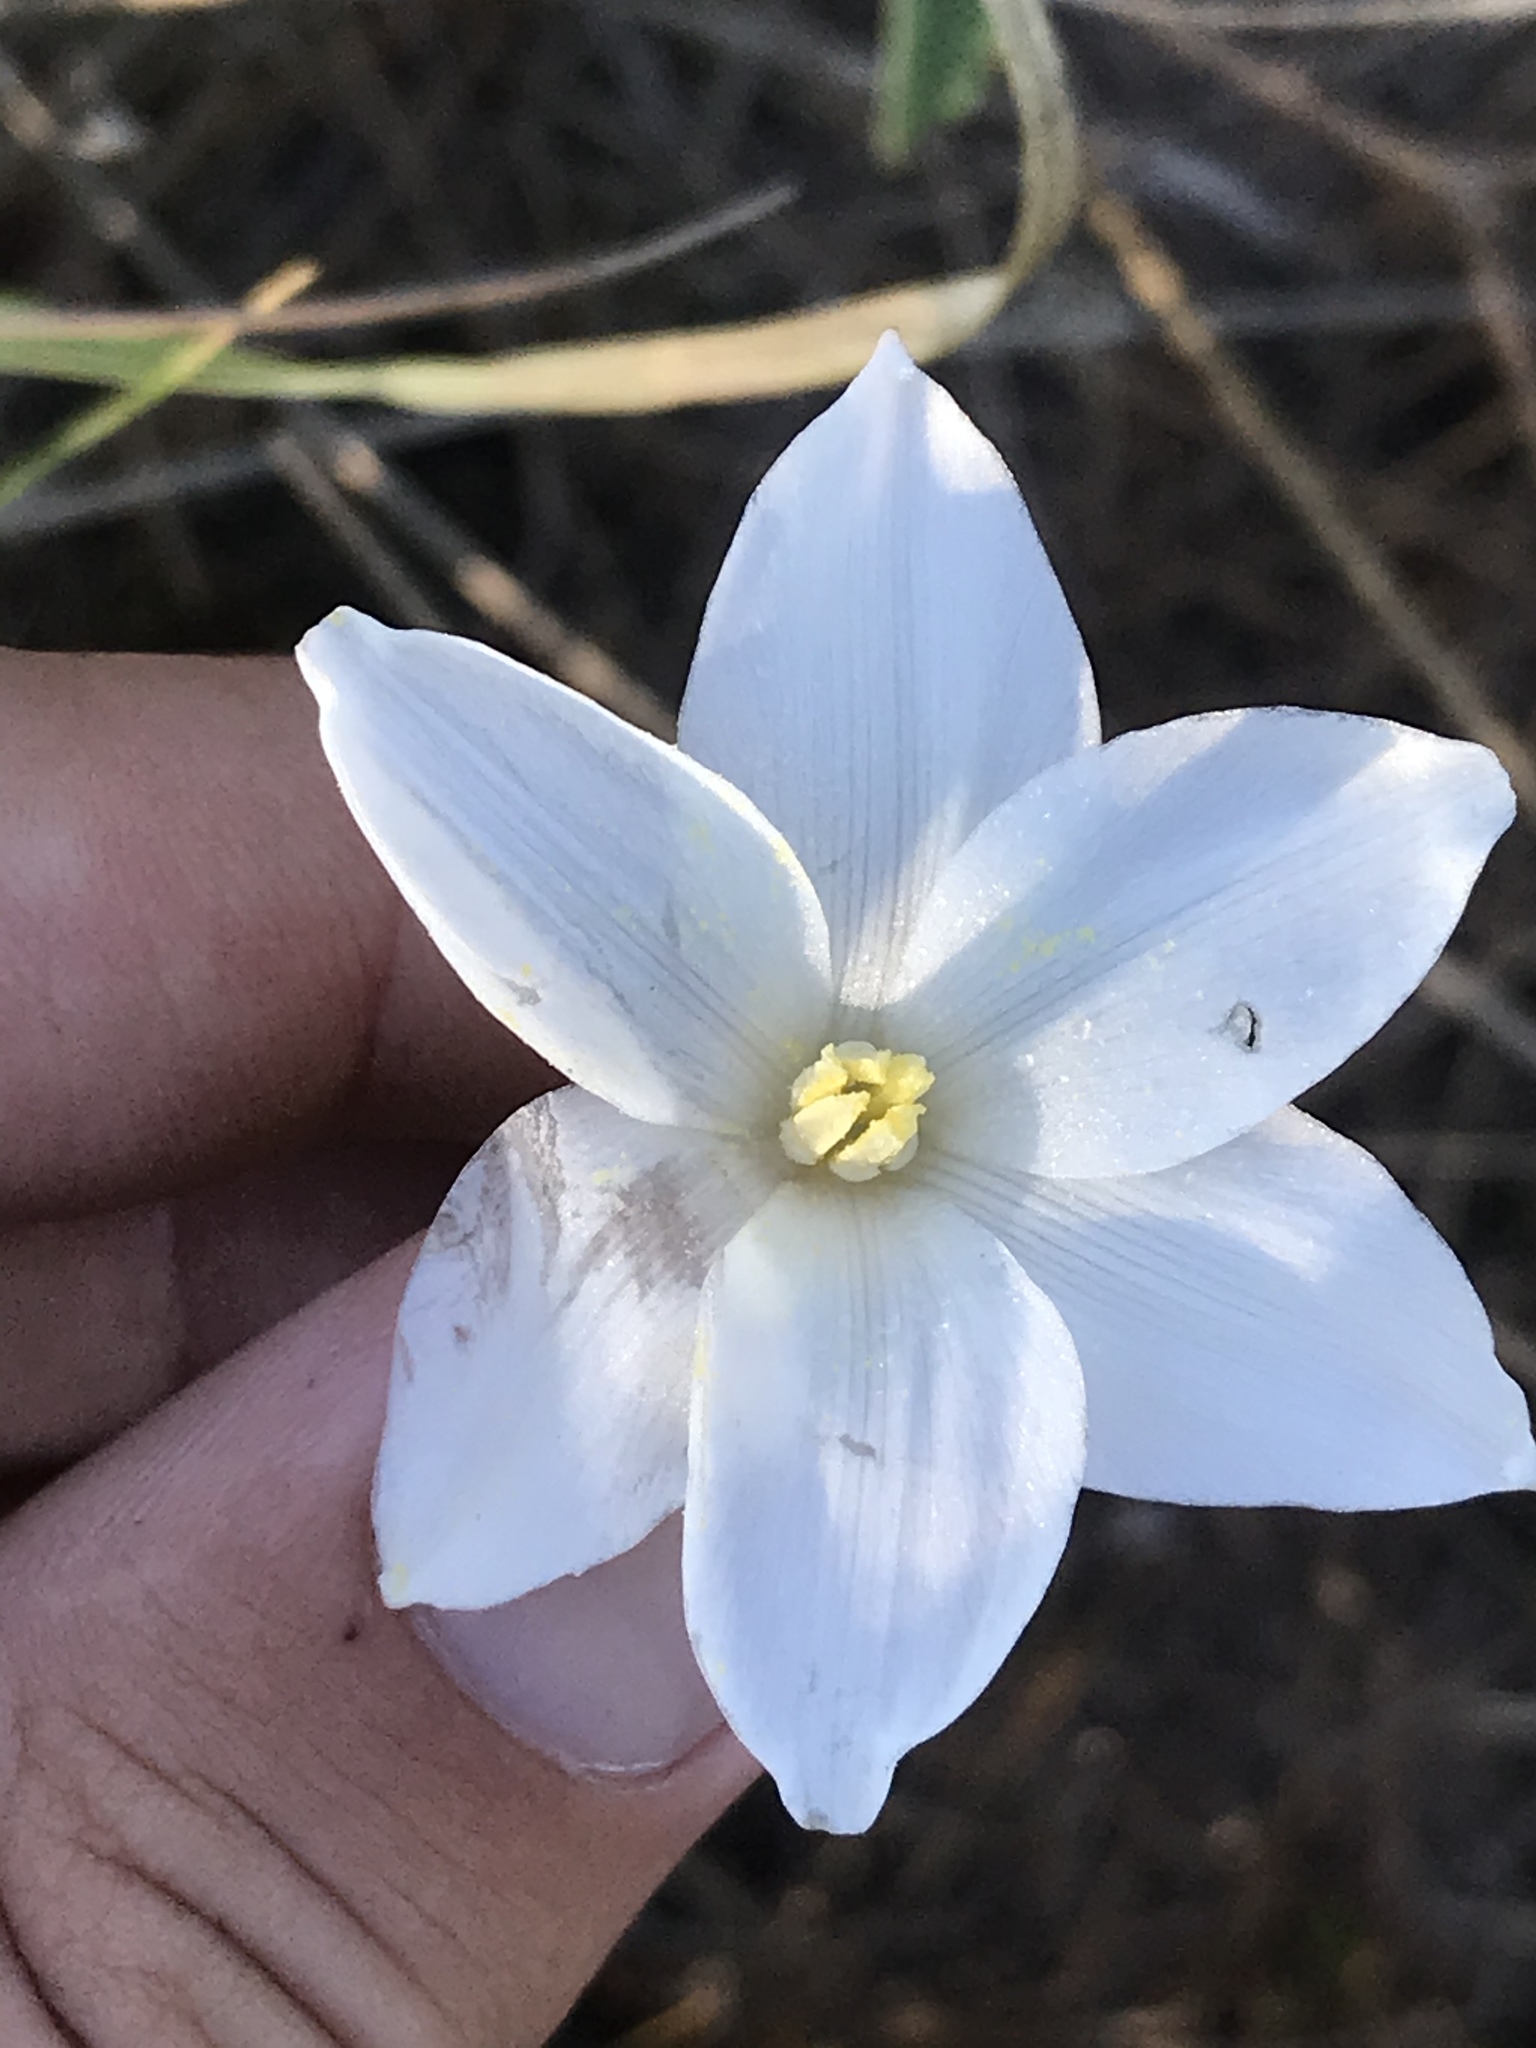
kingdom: Plantae
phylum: Tracheophyta
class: Liliopsida
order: Asparagales
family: Amaryllidaceae
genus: Zephyranthes
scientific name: Zephyranthes chlorosolen
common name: Evening rain-lily
